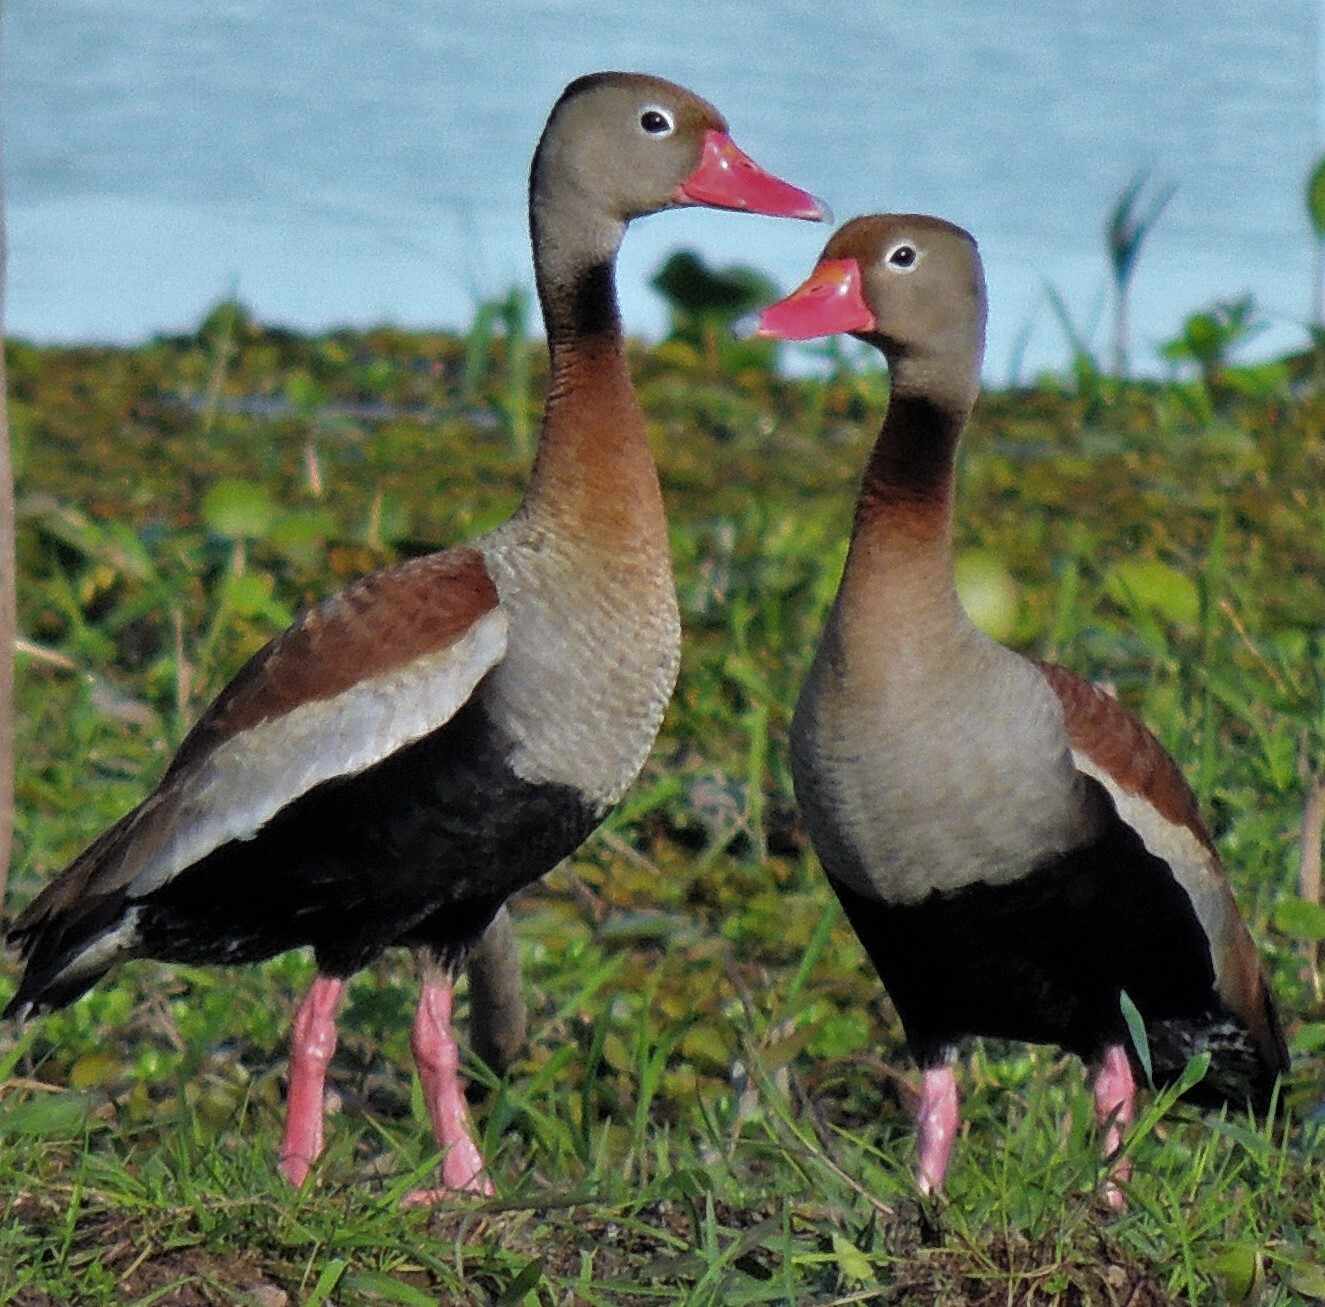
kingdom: Animalia
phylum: Chordata
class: Aves
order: Anseriformes
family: Anatidae
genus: Dendrocygna
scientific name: Dendrocygna autumnalis
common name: Black-bellied whistling duck
